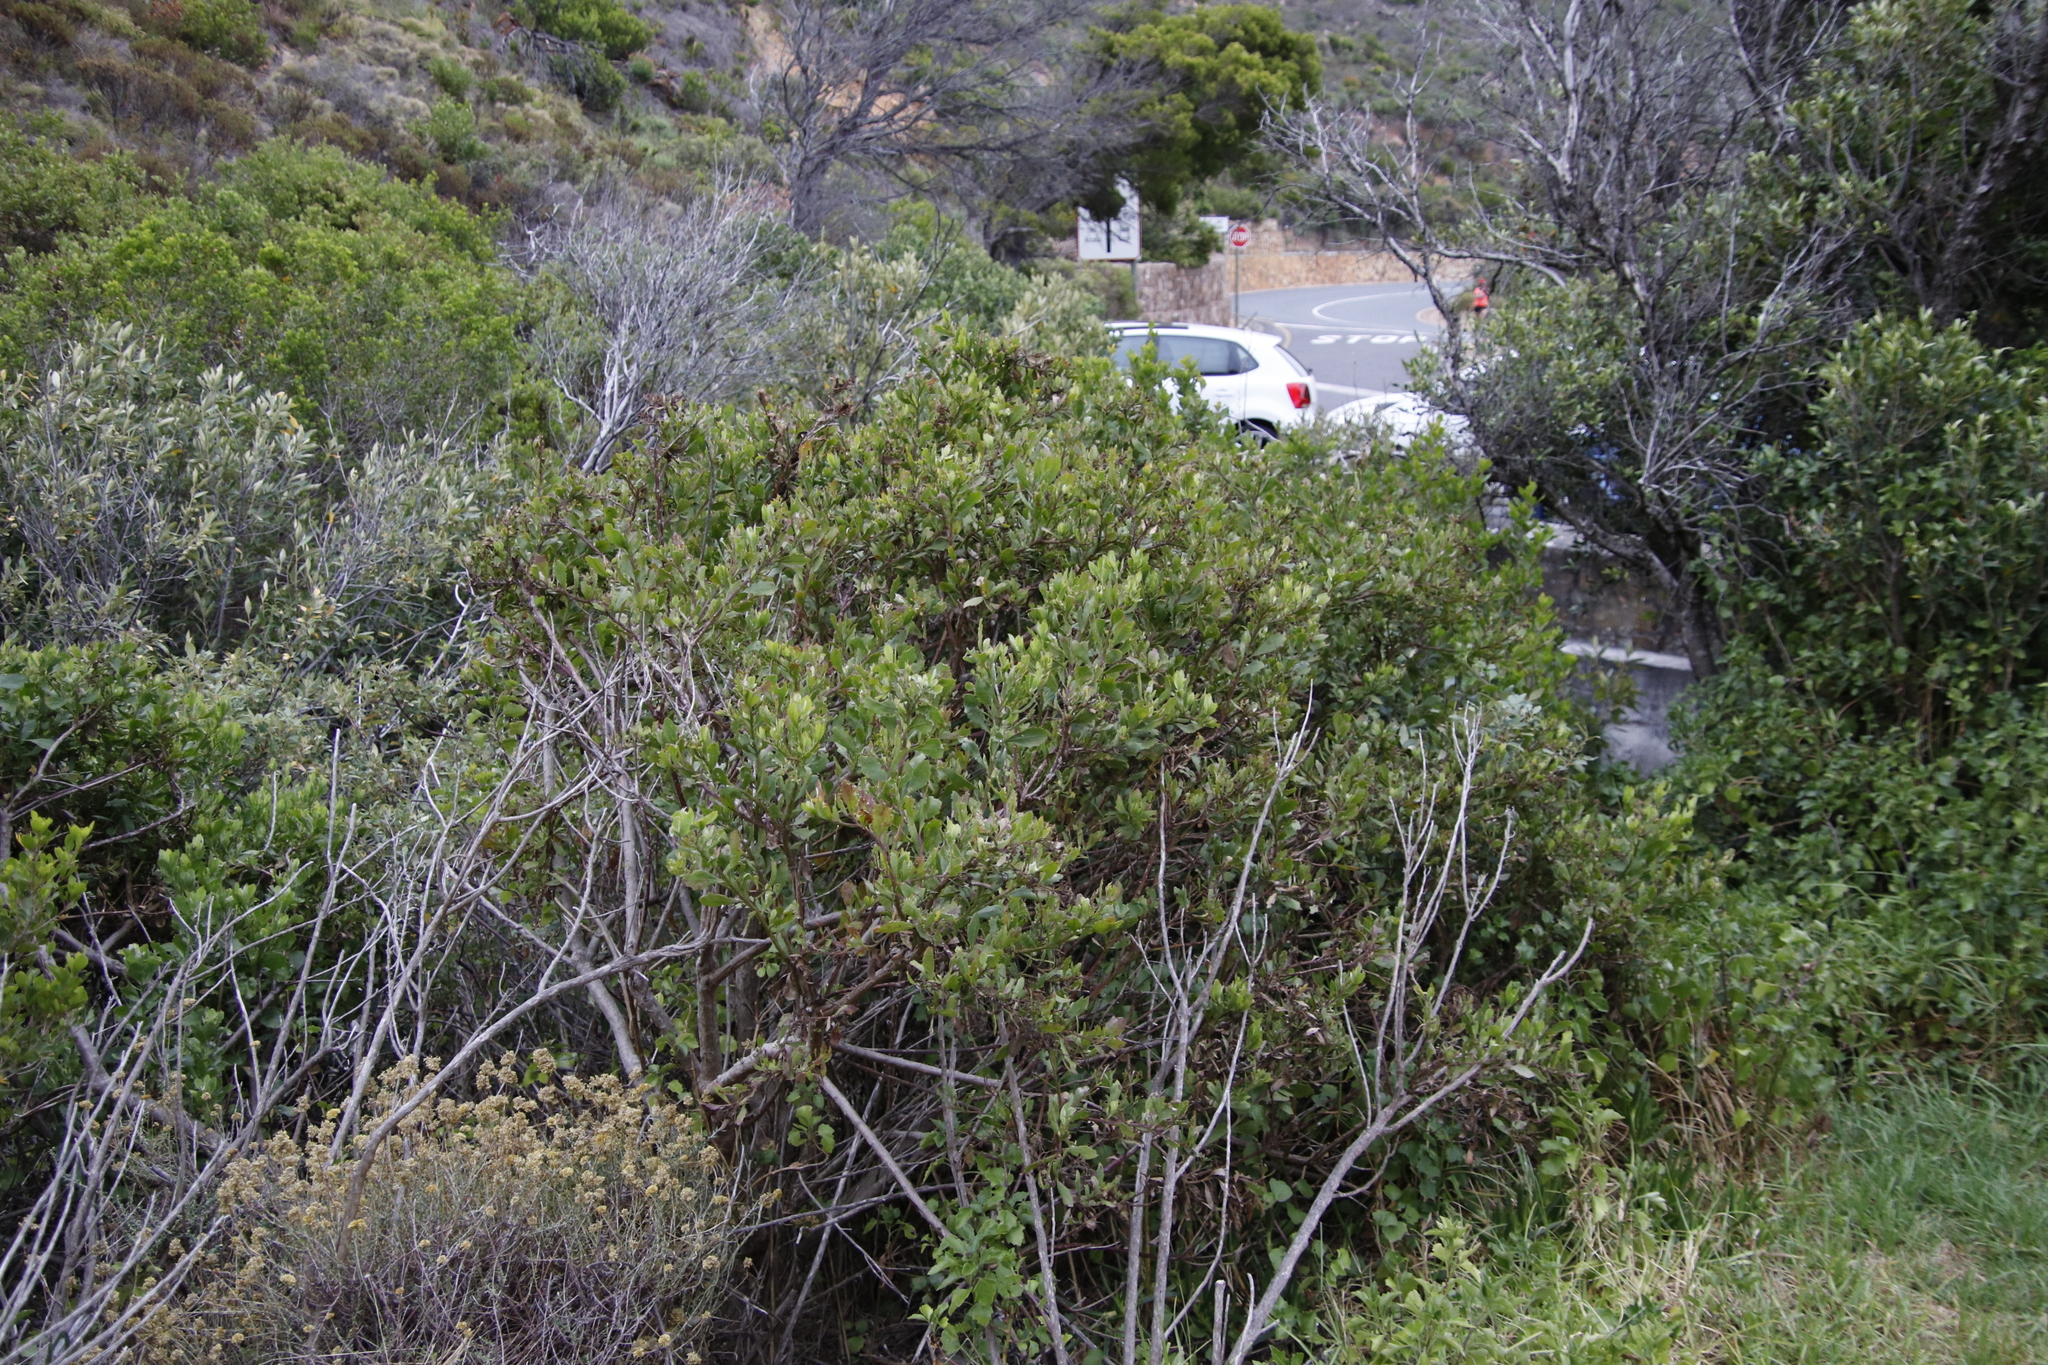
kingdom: Plantae
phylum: Tracheophyta
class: Magnoliopsida
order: Asterales
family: Asteraceae
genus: Osteospermum
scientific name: Osteospermum moniliferum
